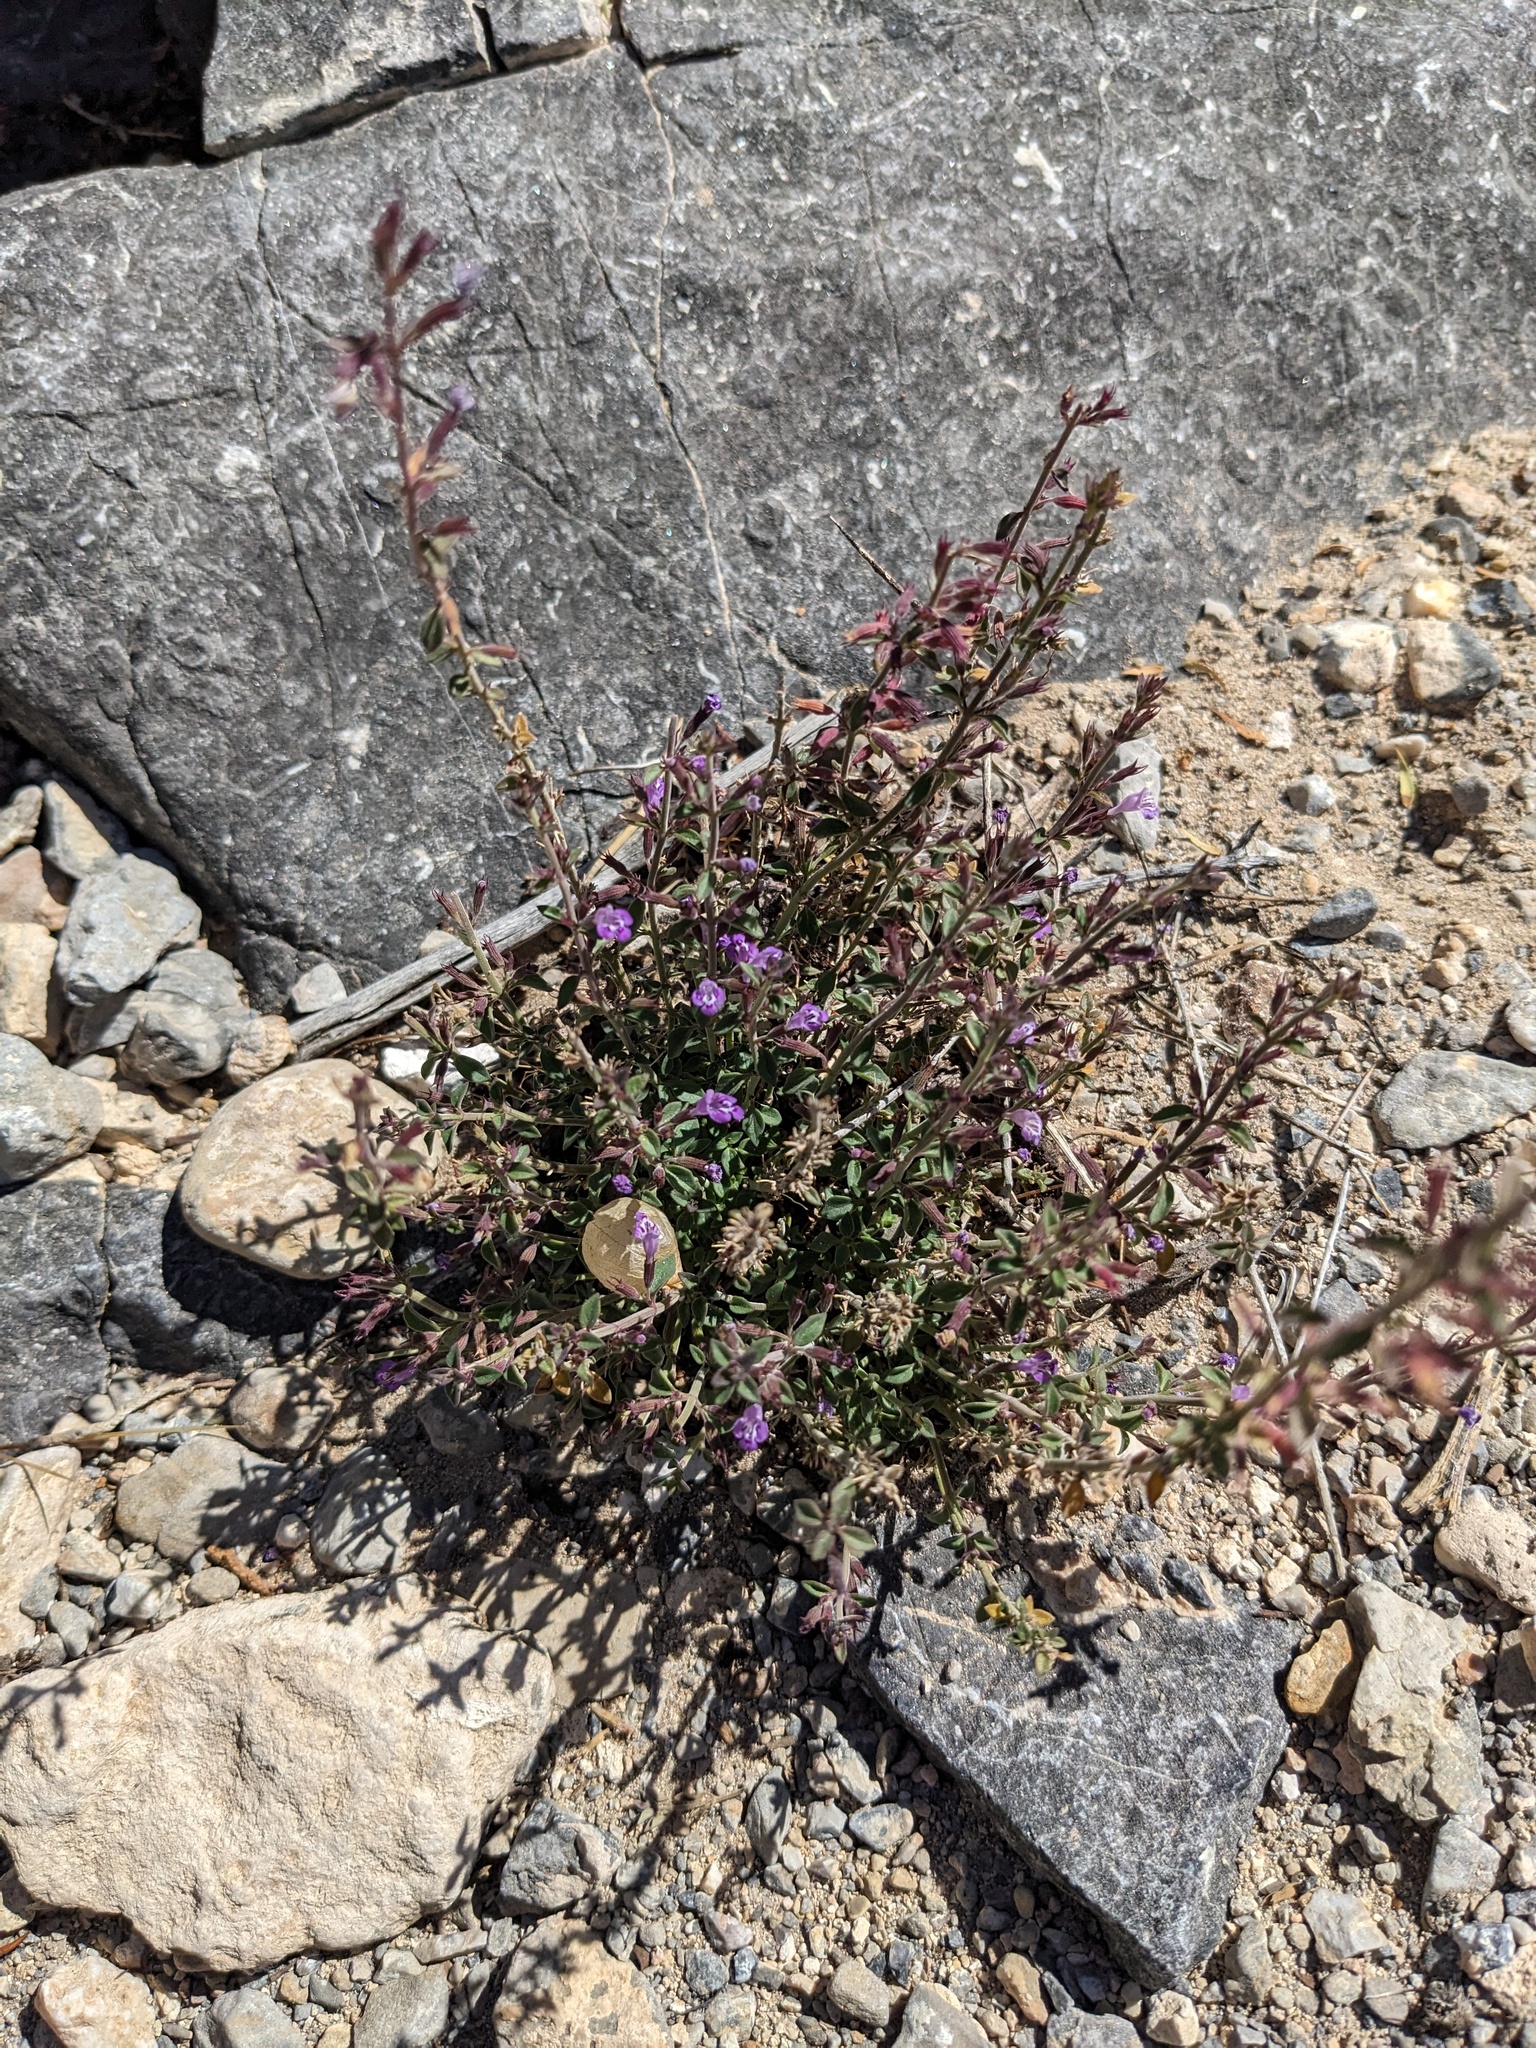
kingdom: Plantae
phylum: Tracheophyta
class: Magnoliopsida
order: Lamiales
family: Lamiaceae
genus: Hedeoma
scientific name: Hedeoma nana
